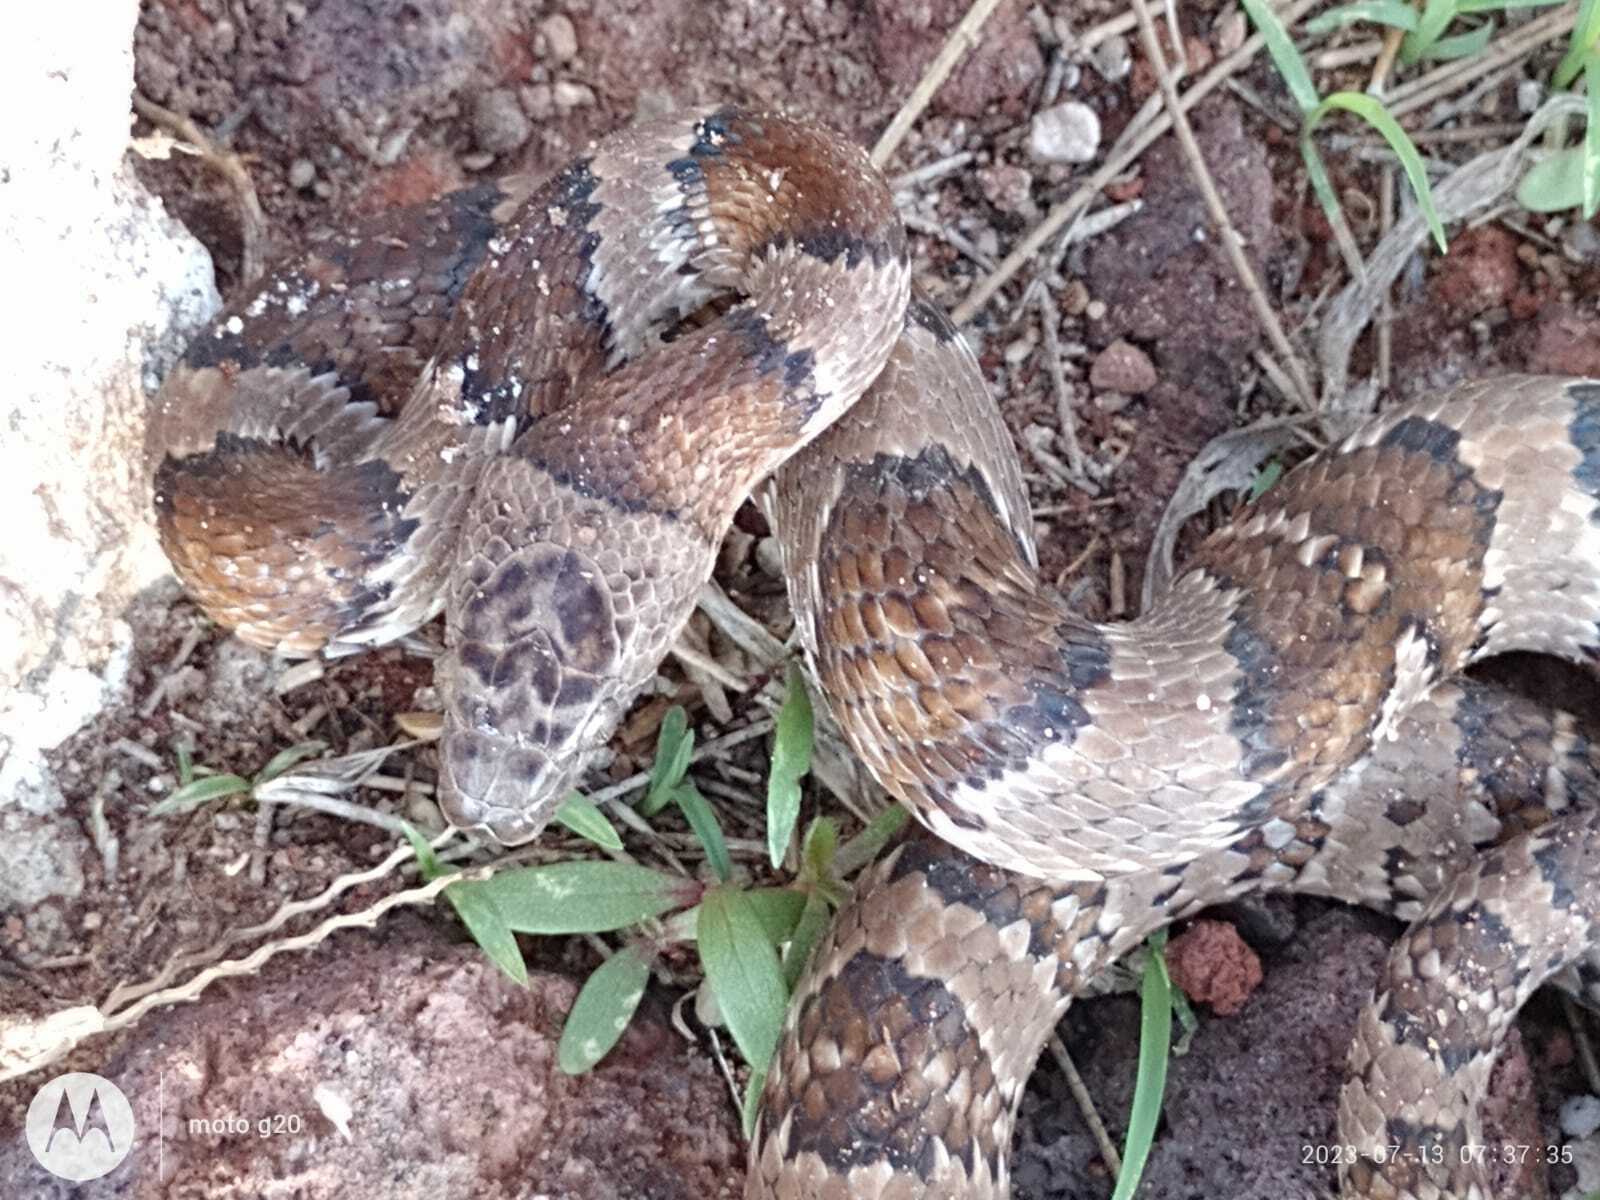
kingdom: Animalia
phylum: Chordata
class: Squamata
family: Colubridae
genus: Trimorphodon
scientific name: Trimorphodon tau
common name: Mexican lyre snake
